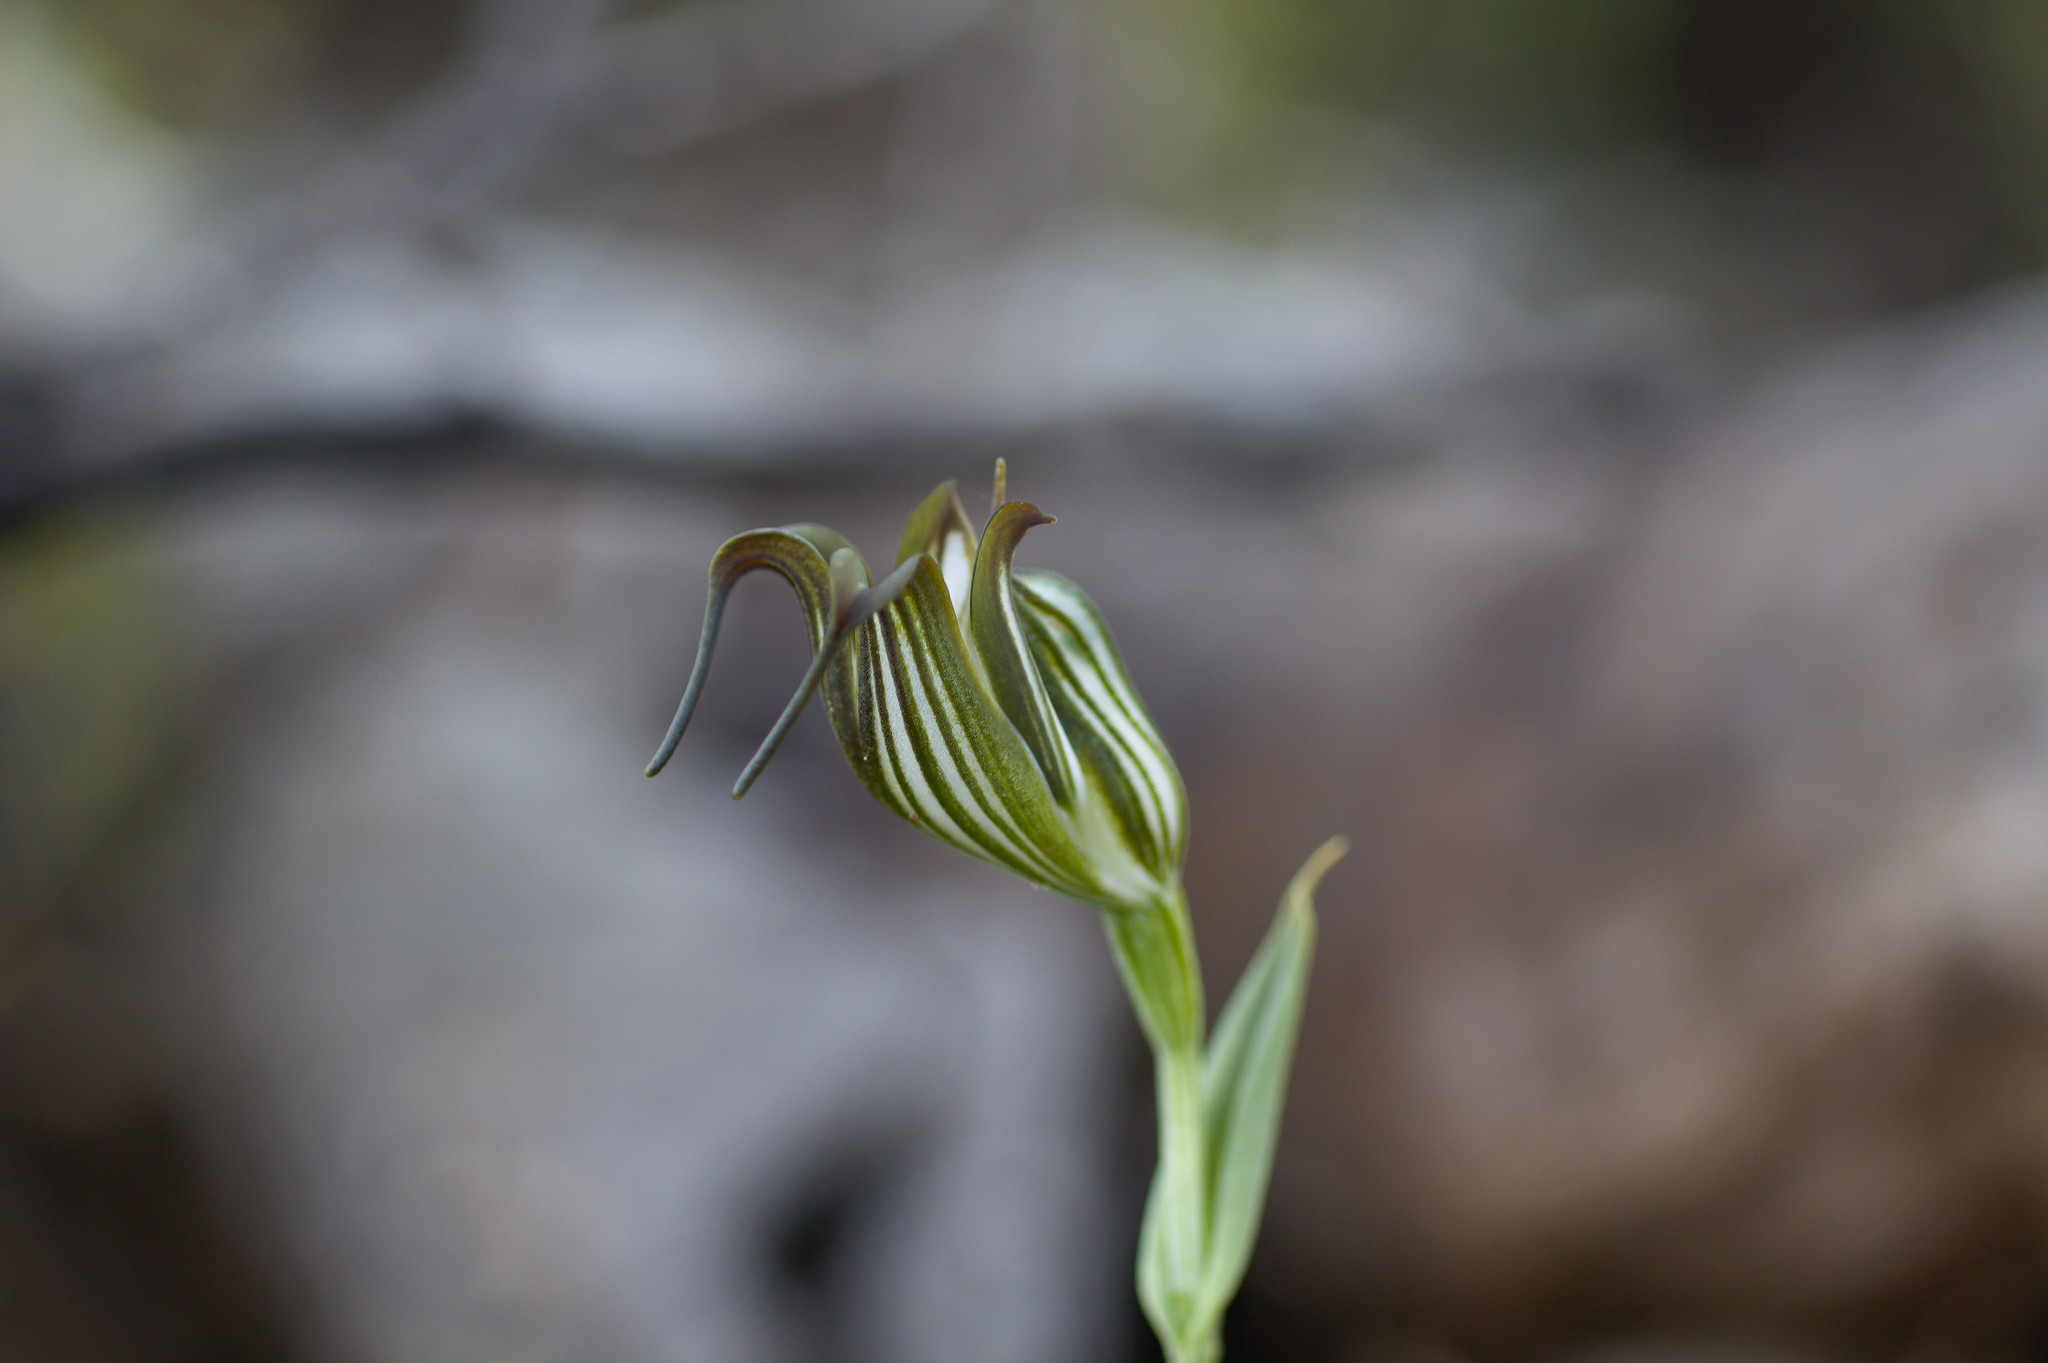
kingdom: Plantae
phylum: Tracheophyta
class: Liliopsida
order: Asparagales
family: Orchidaceae
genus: Pterostylis
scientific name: Pterostylis recurva
